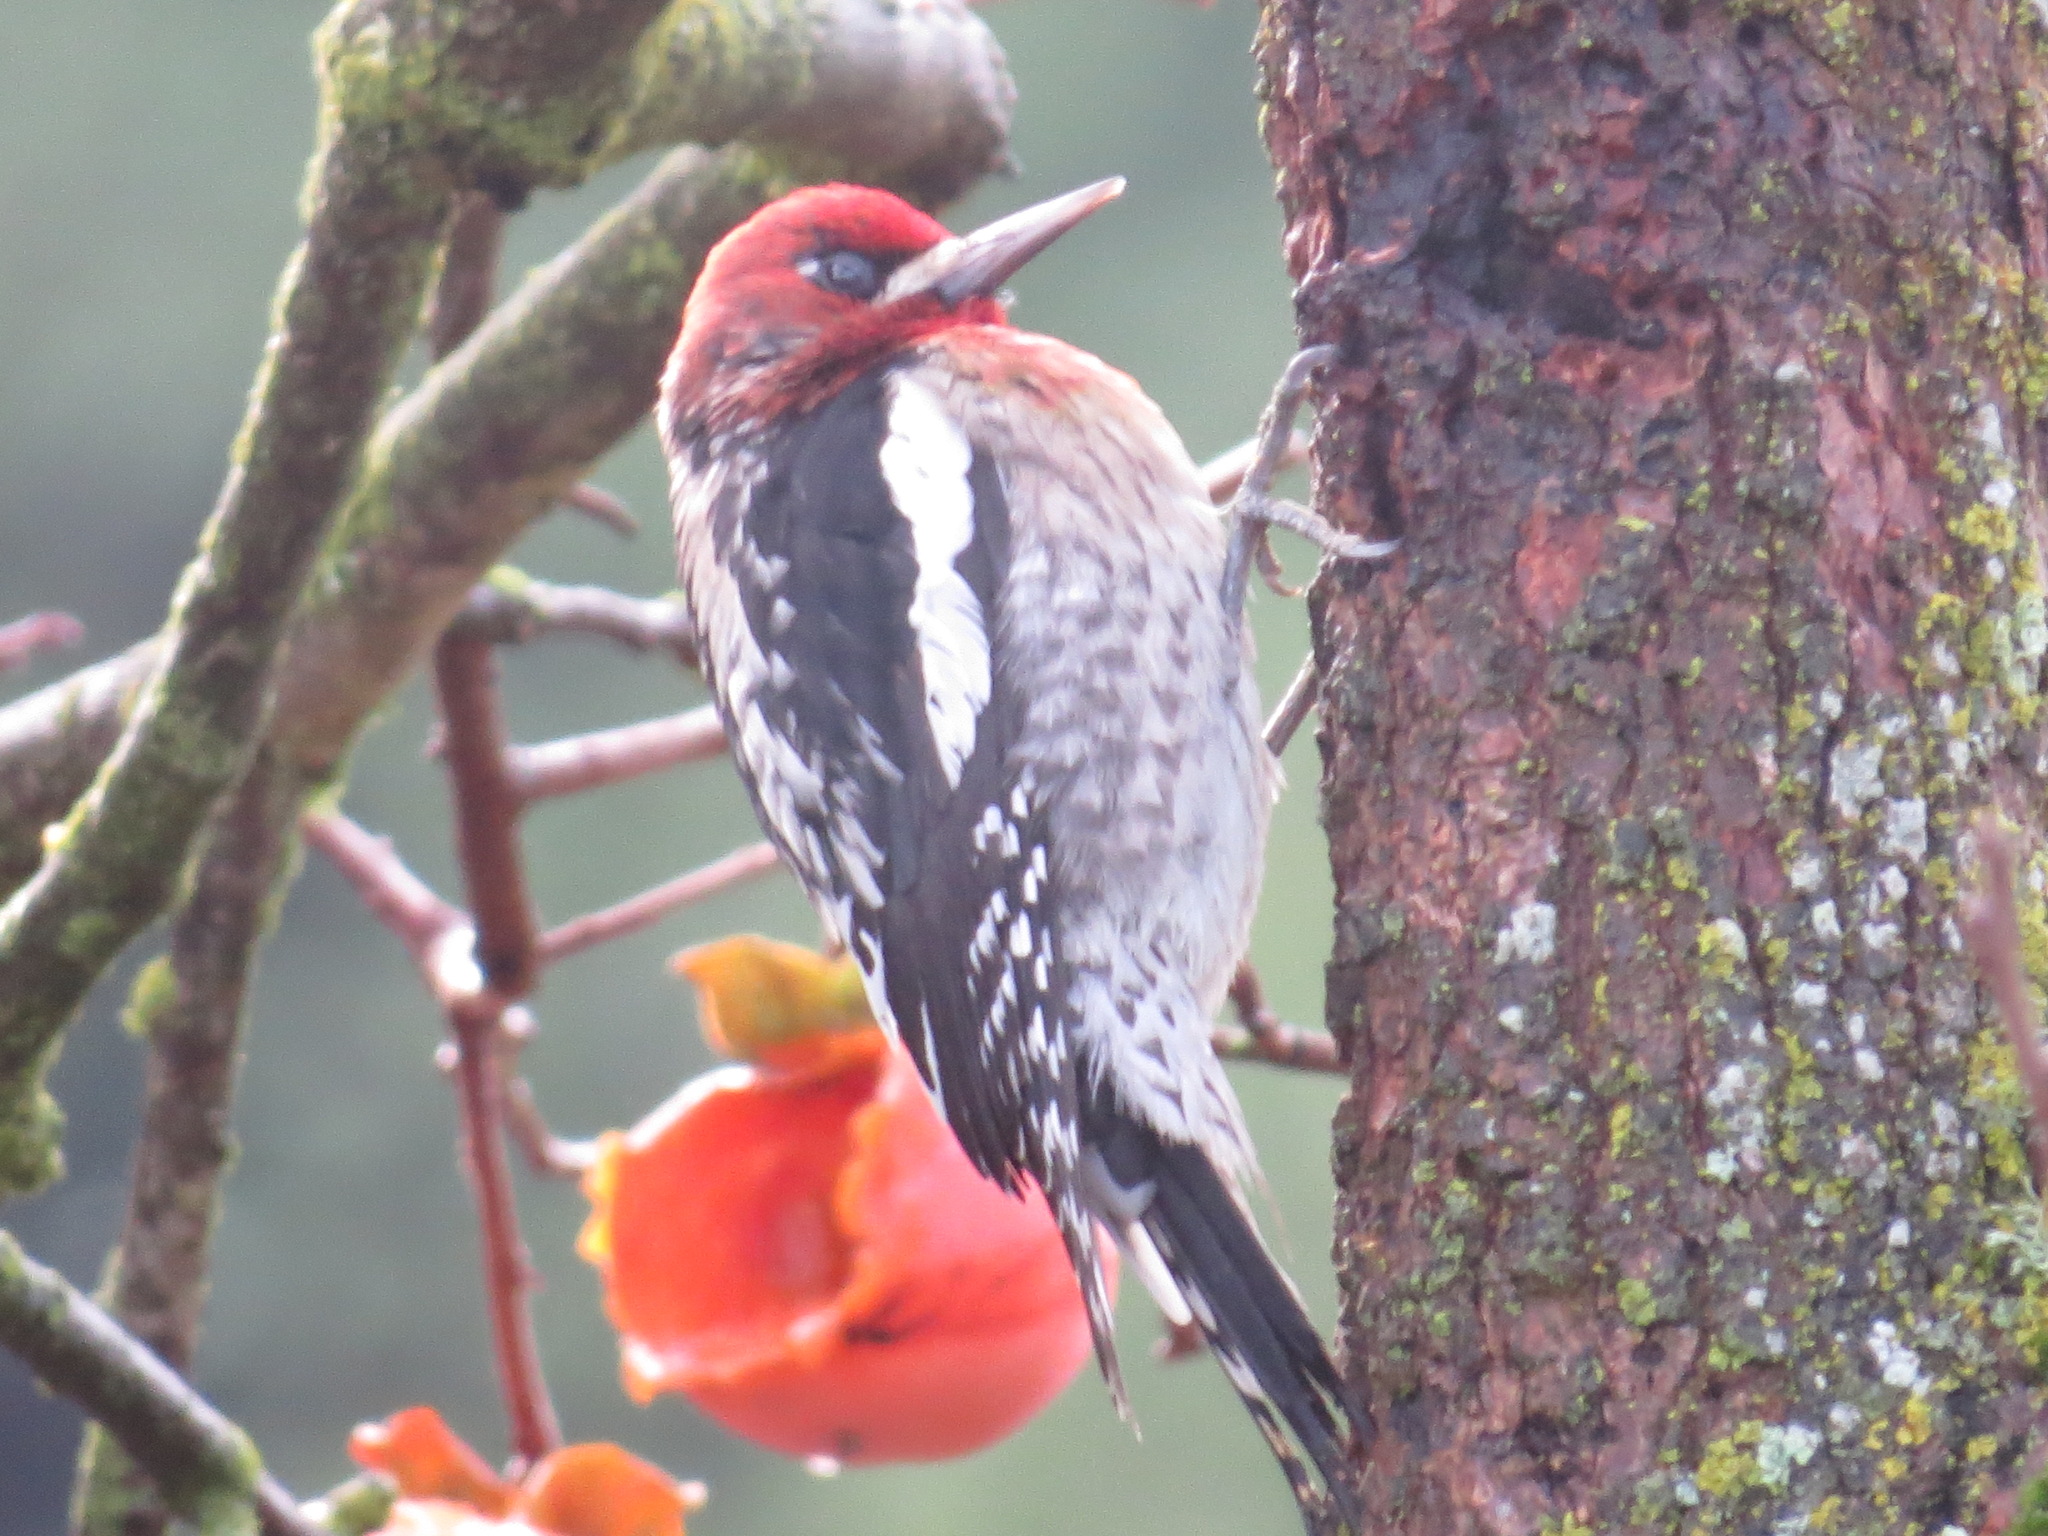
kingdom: Animalia
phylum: Chordata
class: Aves
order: Piciformes
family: Picidae
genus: Sphyrapicus
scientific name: Sphyrapicus ruber
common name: Red-breasted sapsucker
